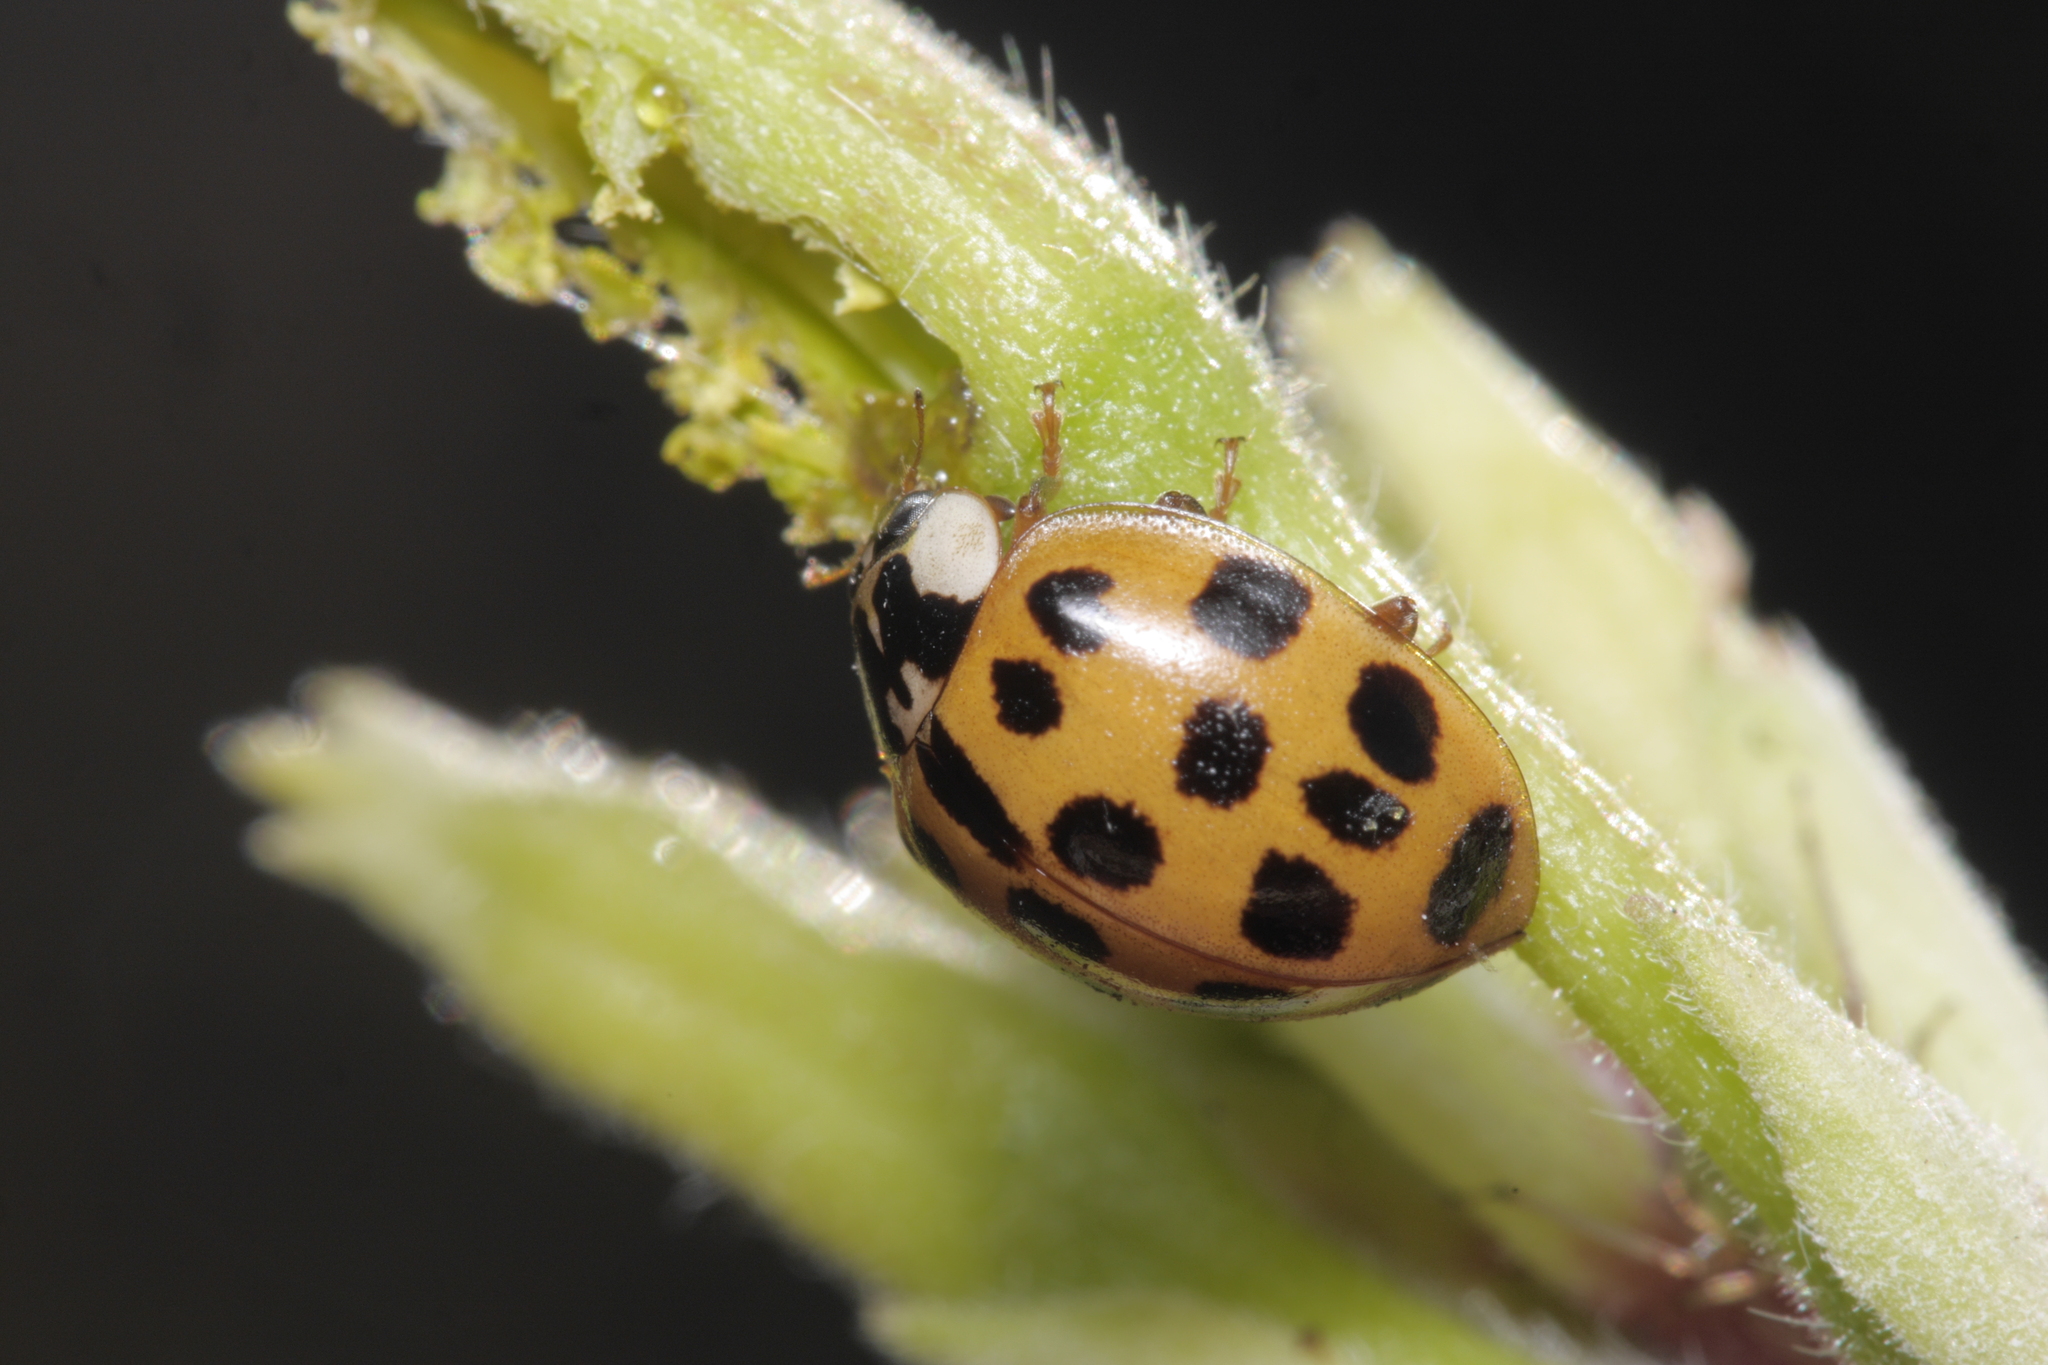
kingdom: Animalia
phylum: Arthropoda
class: Insecta
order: Coleoptera
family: Coccinellidae
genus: Harmonia
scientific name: Harmonia axyridis
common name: Harlequin ladybird
